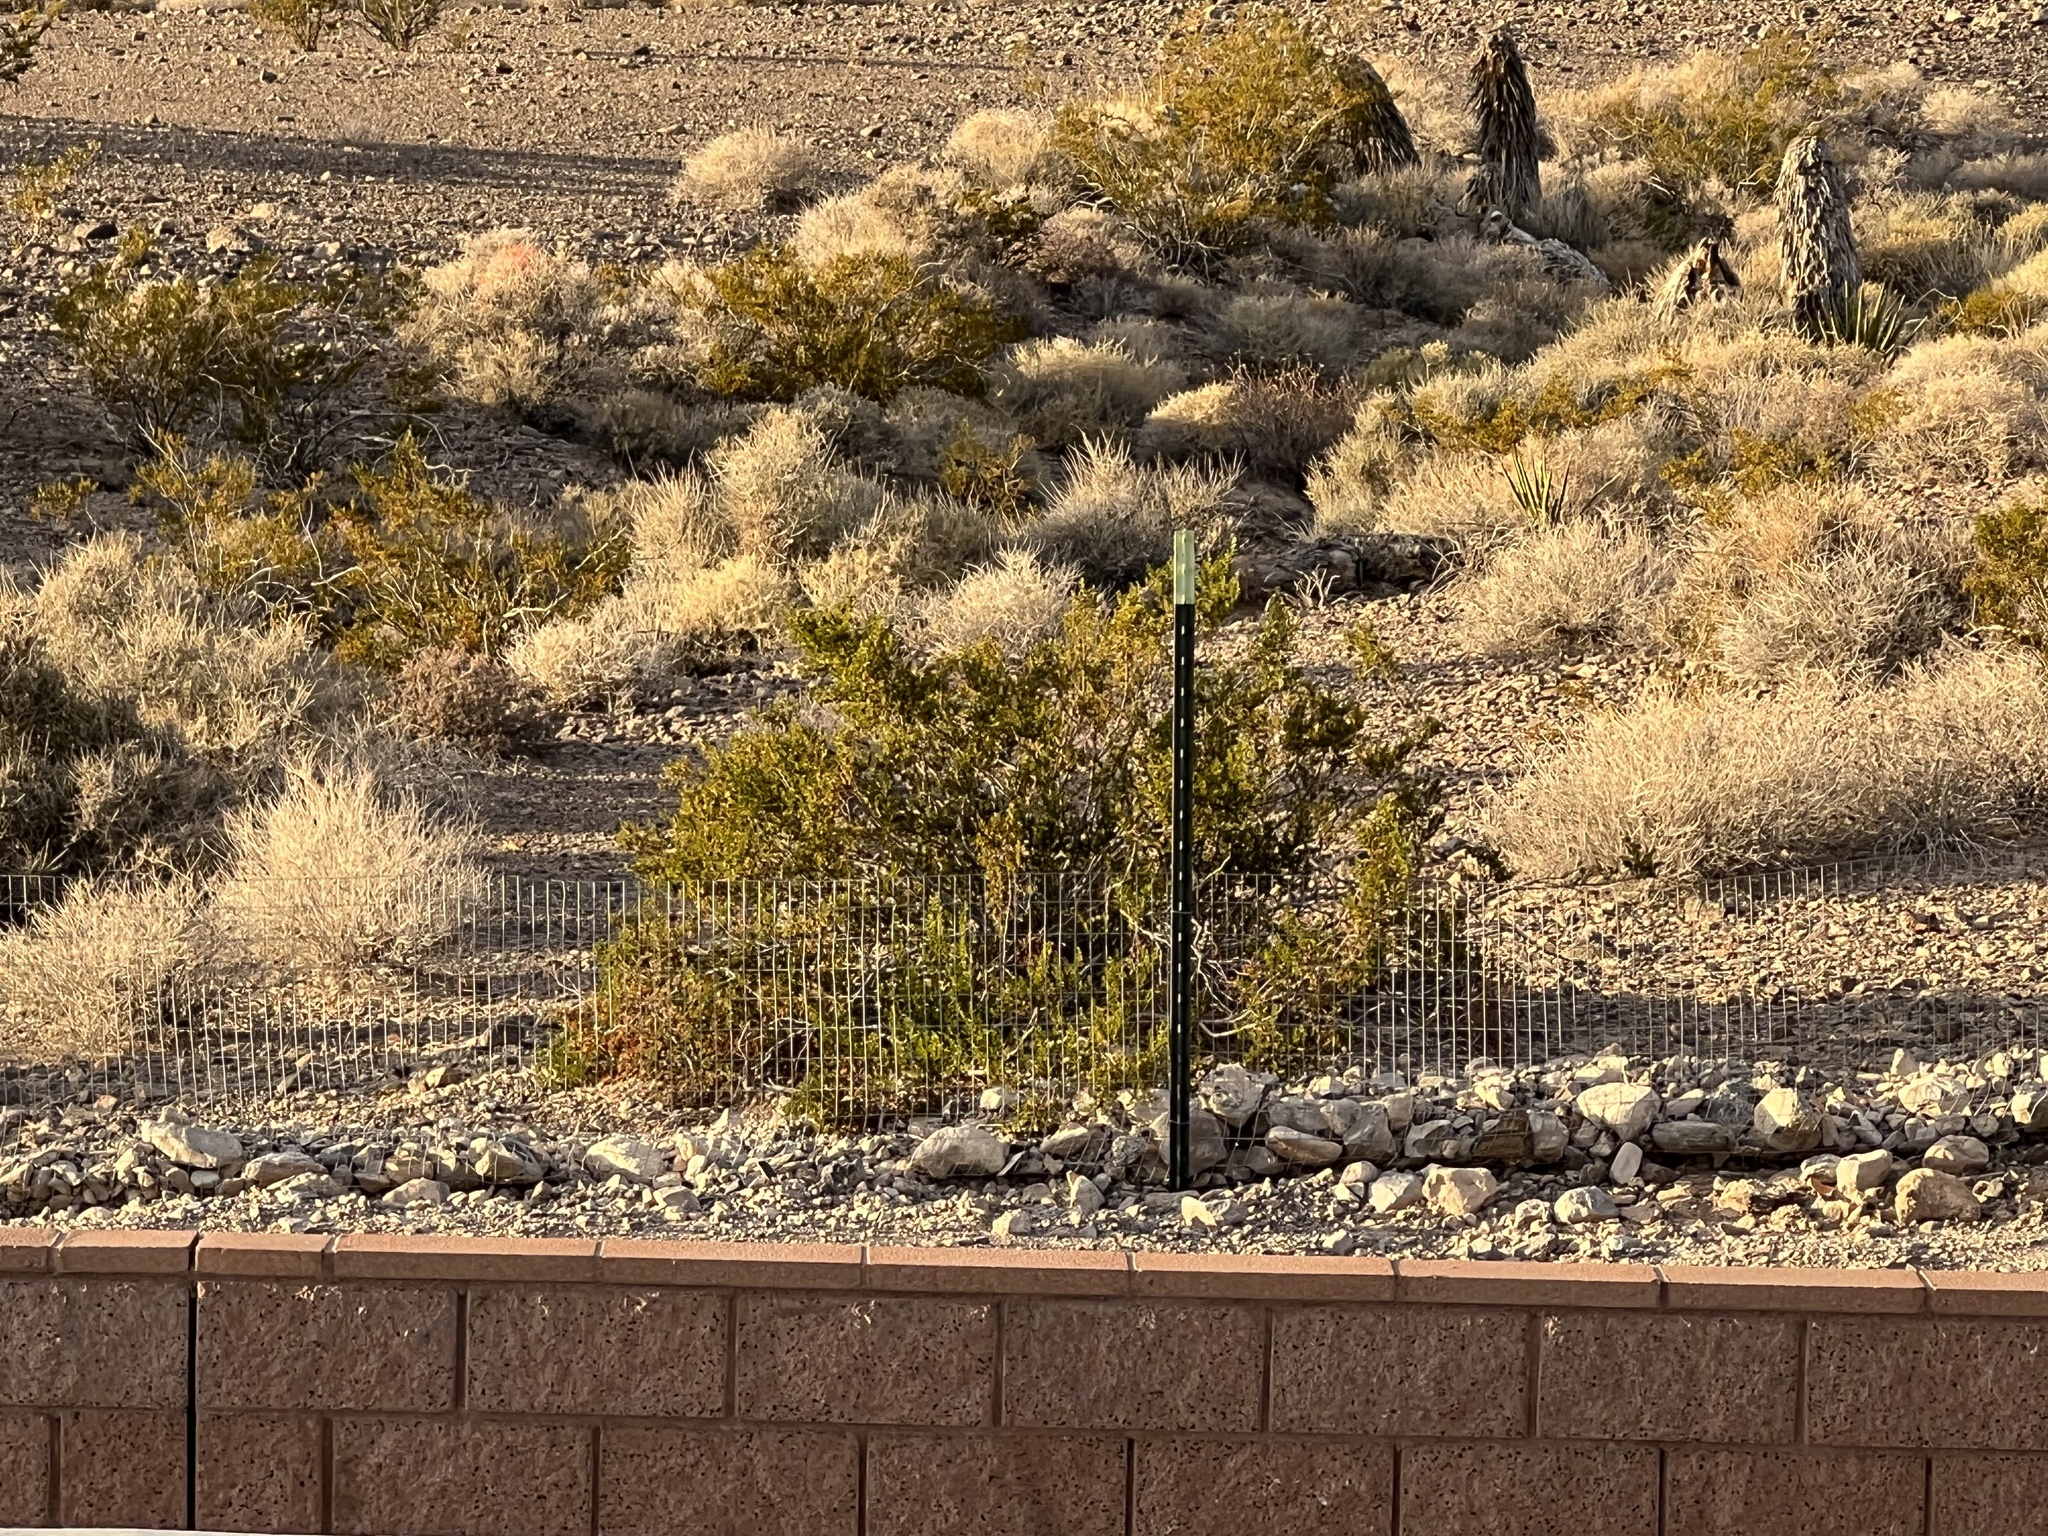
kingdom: Plantae
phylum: Tracheophyta
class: Magnoliopsida
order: Zygophyllales
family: Zygophyllaceae
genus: Larrea
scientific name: Larrea tridentata
